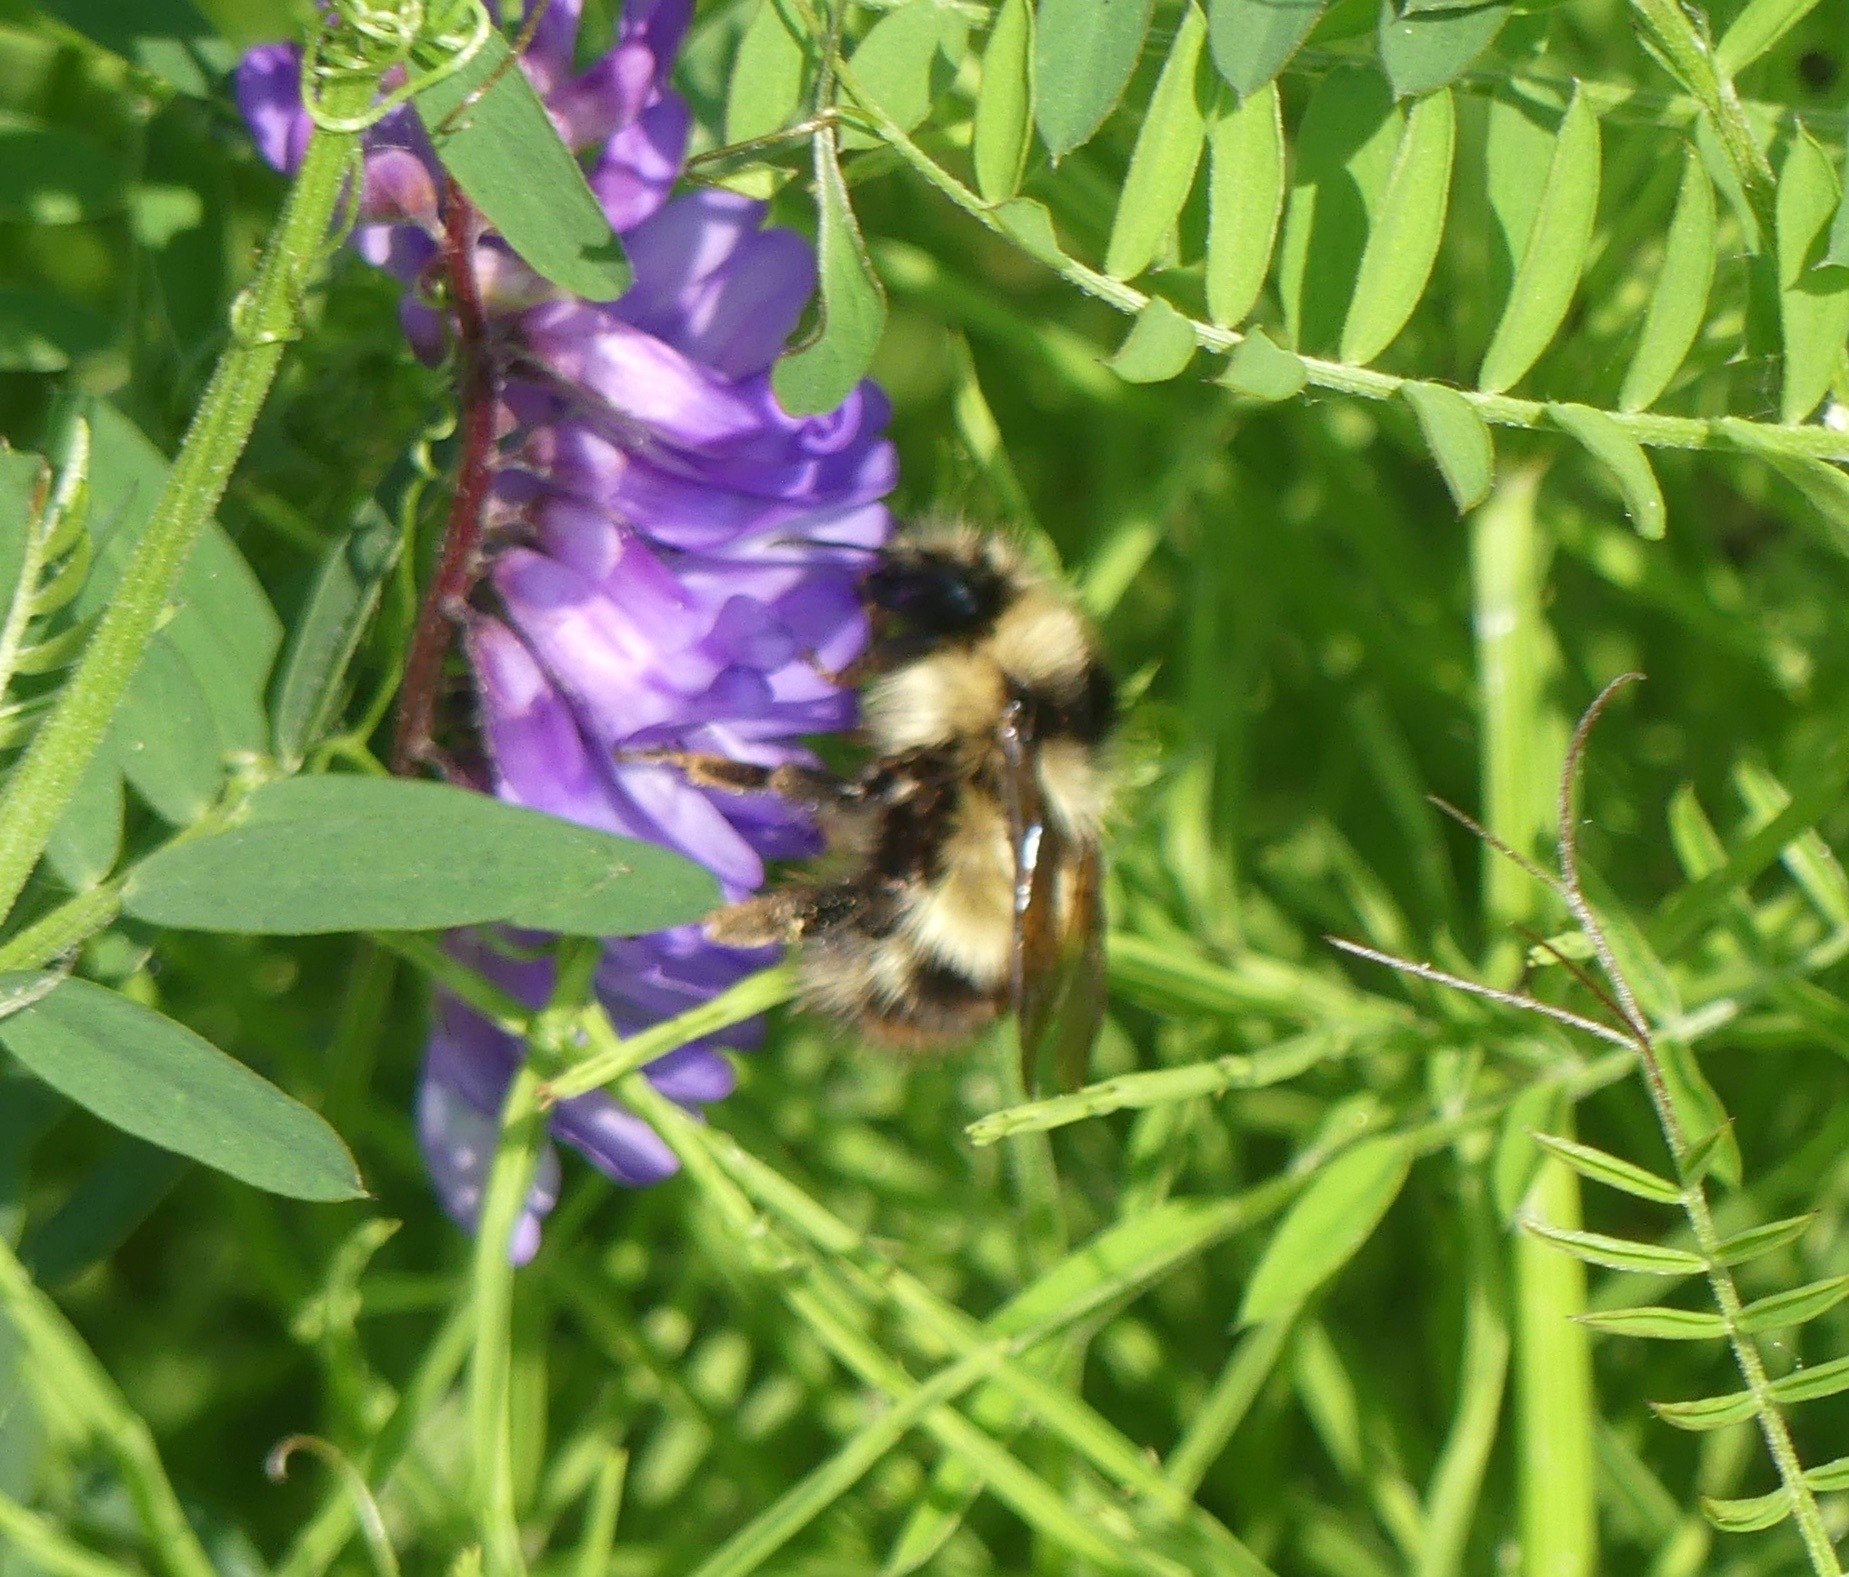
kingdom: Animalia
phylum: Arthropoda
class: Insecta
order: Hymenoptera
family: Apidae
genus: Bombus
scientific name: Bombus flavifrons
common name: Yellow head bumble bee
